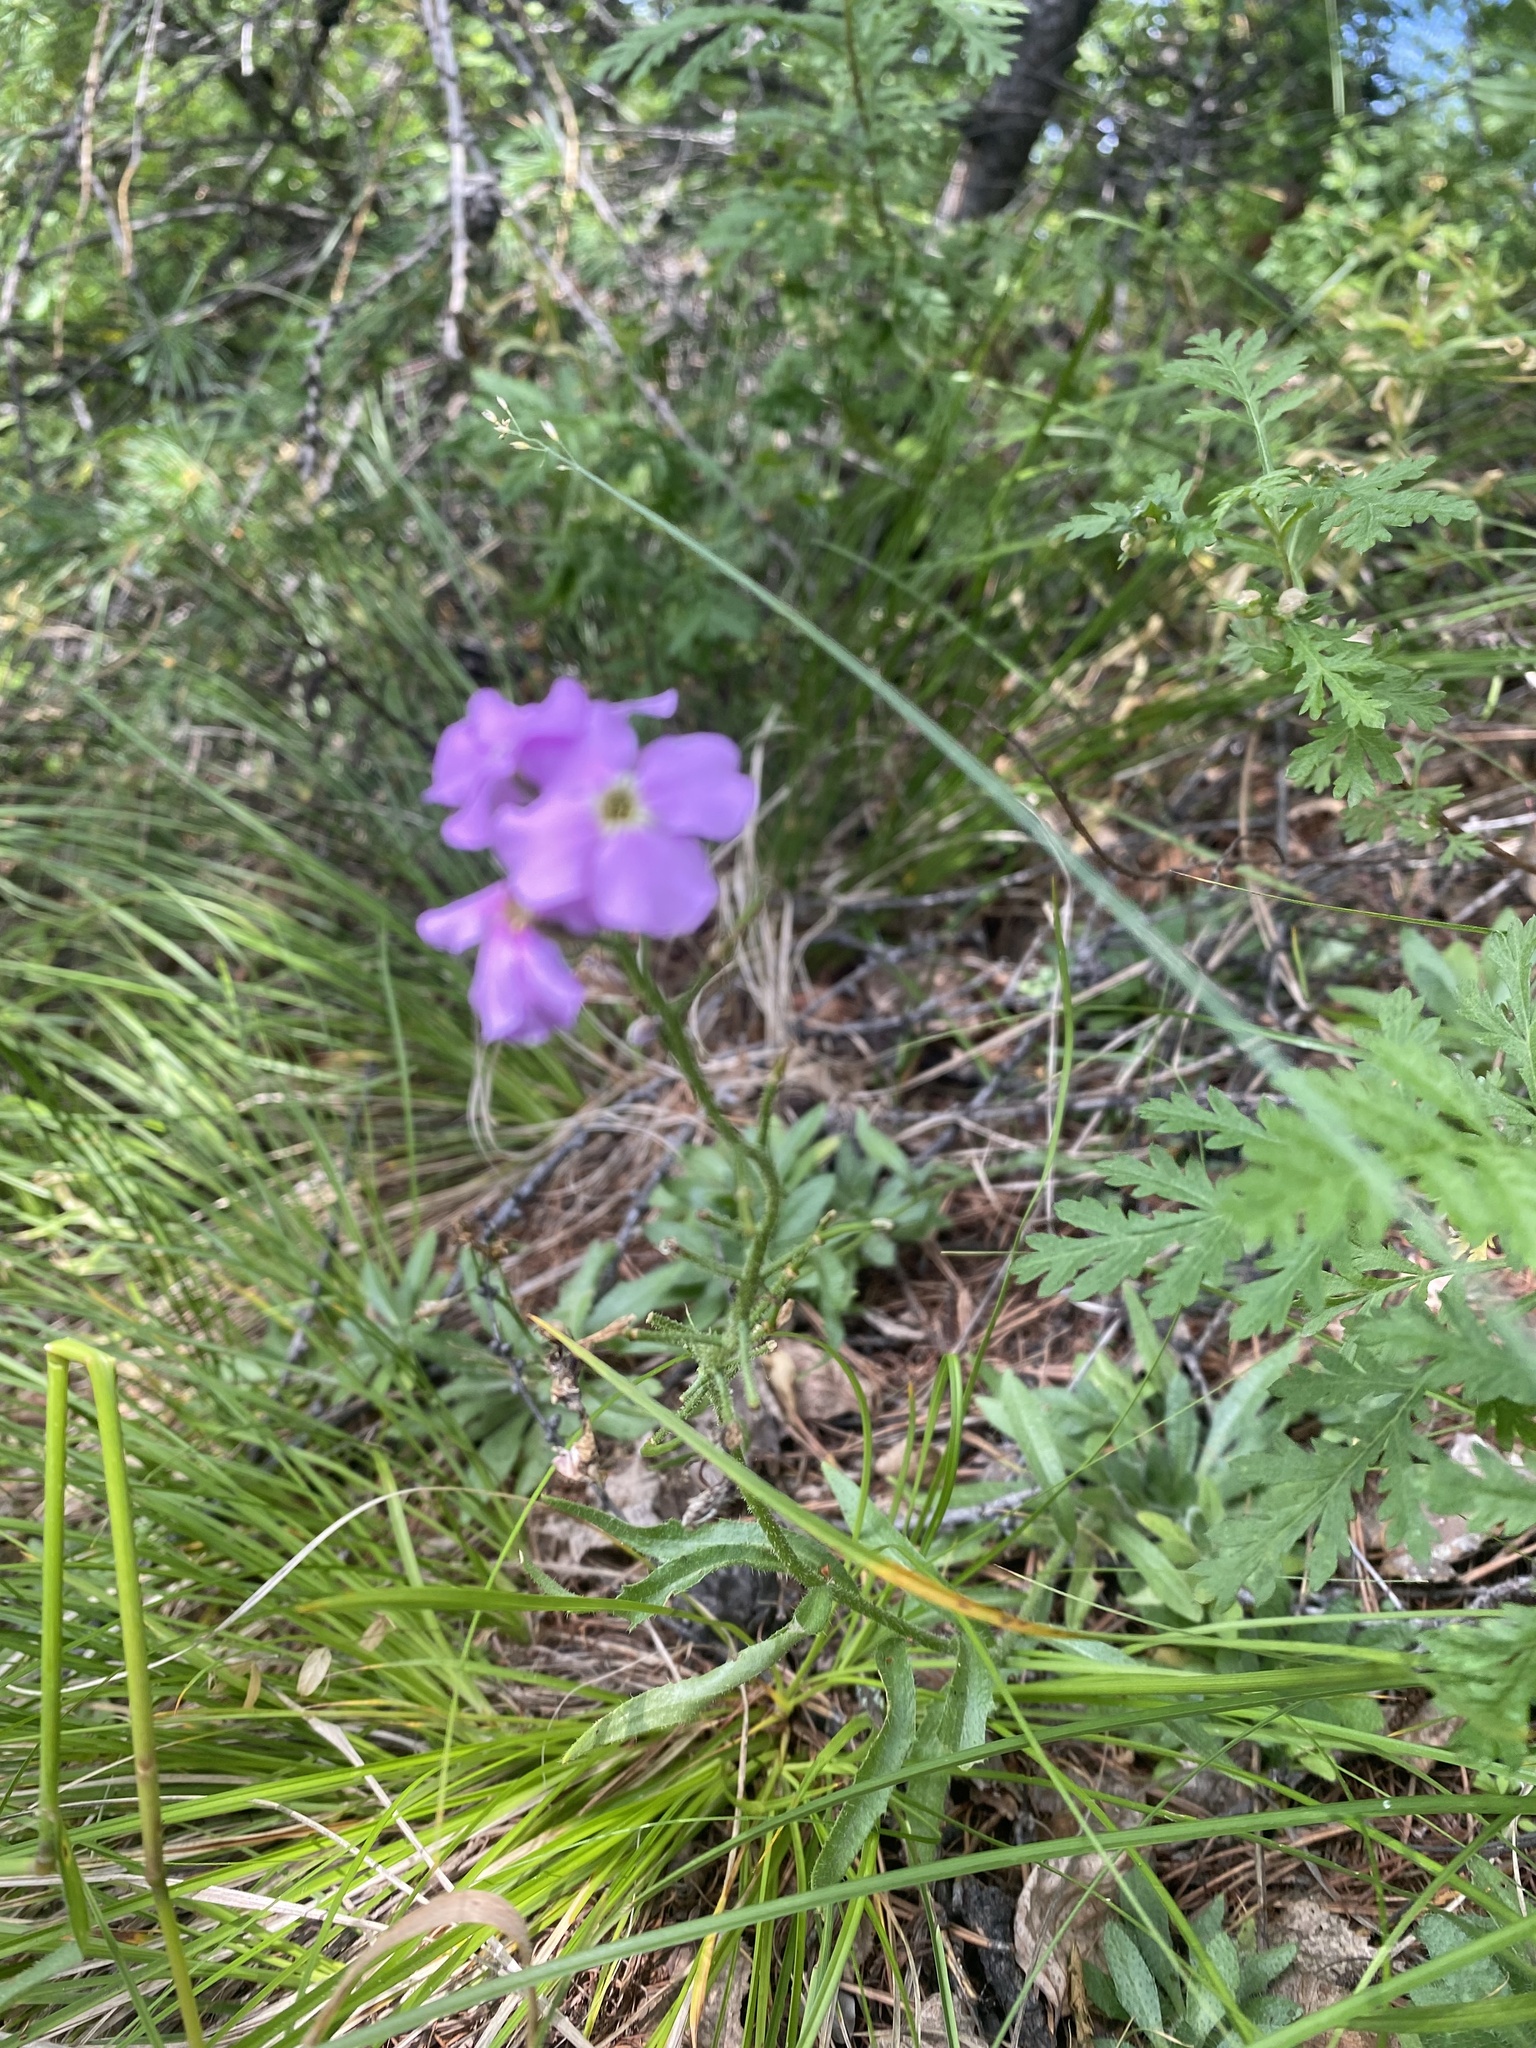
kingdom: Plantae
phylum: Tracheophyta
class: Magnoliopsida
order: Brassicales
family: Brassicaceae
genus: Clausia
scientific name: Clausia aprica
